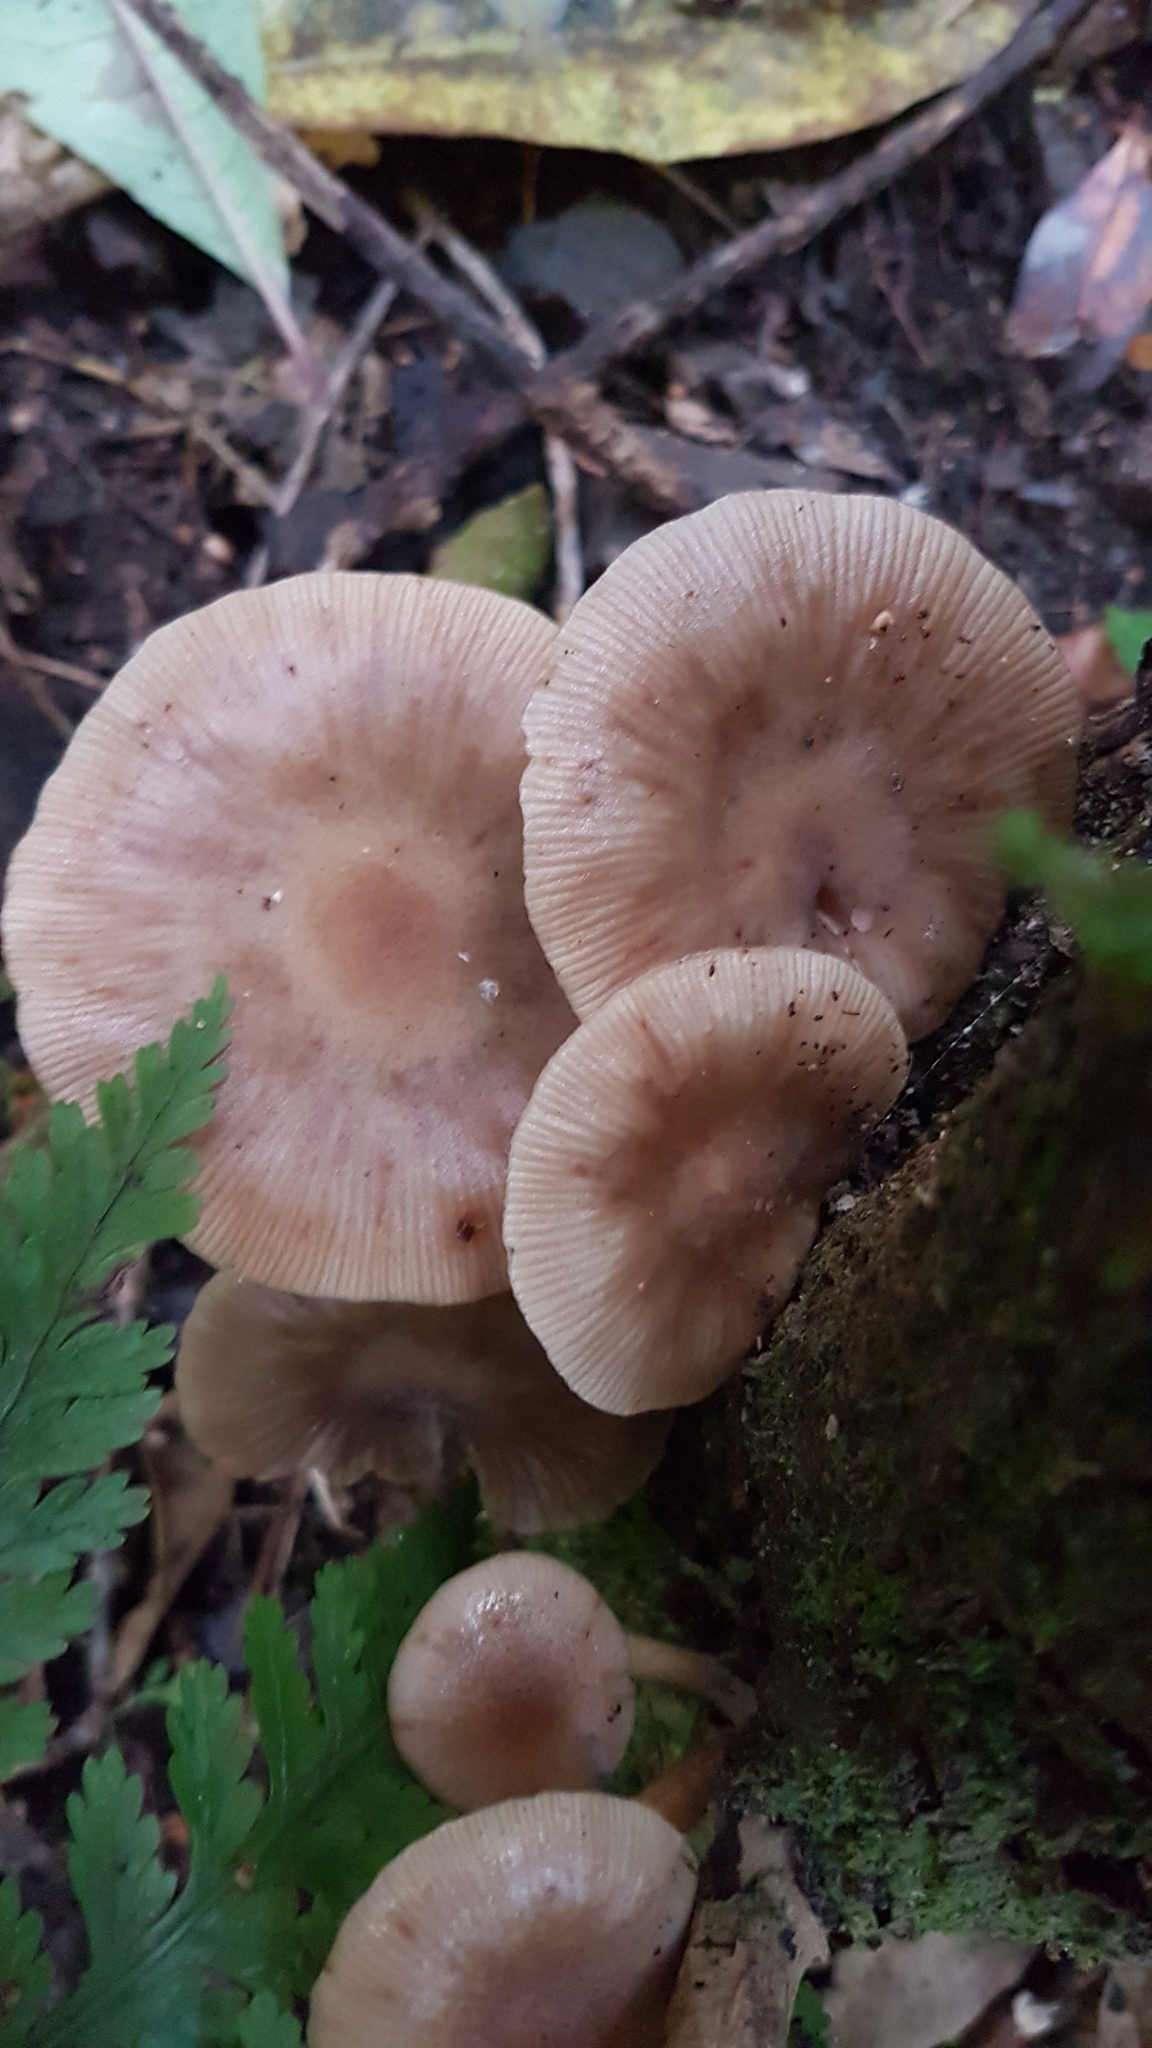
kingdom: Fungi
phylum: Basidiomycota
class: Agaricomycetes
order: Agaricales
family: Physalacriaceae
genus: Armillaria
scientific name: Armillaria novae-zelandiae
